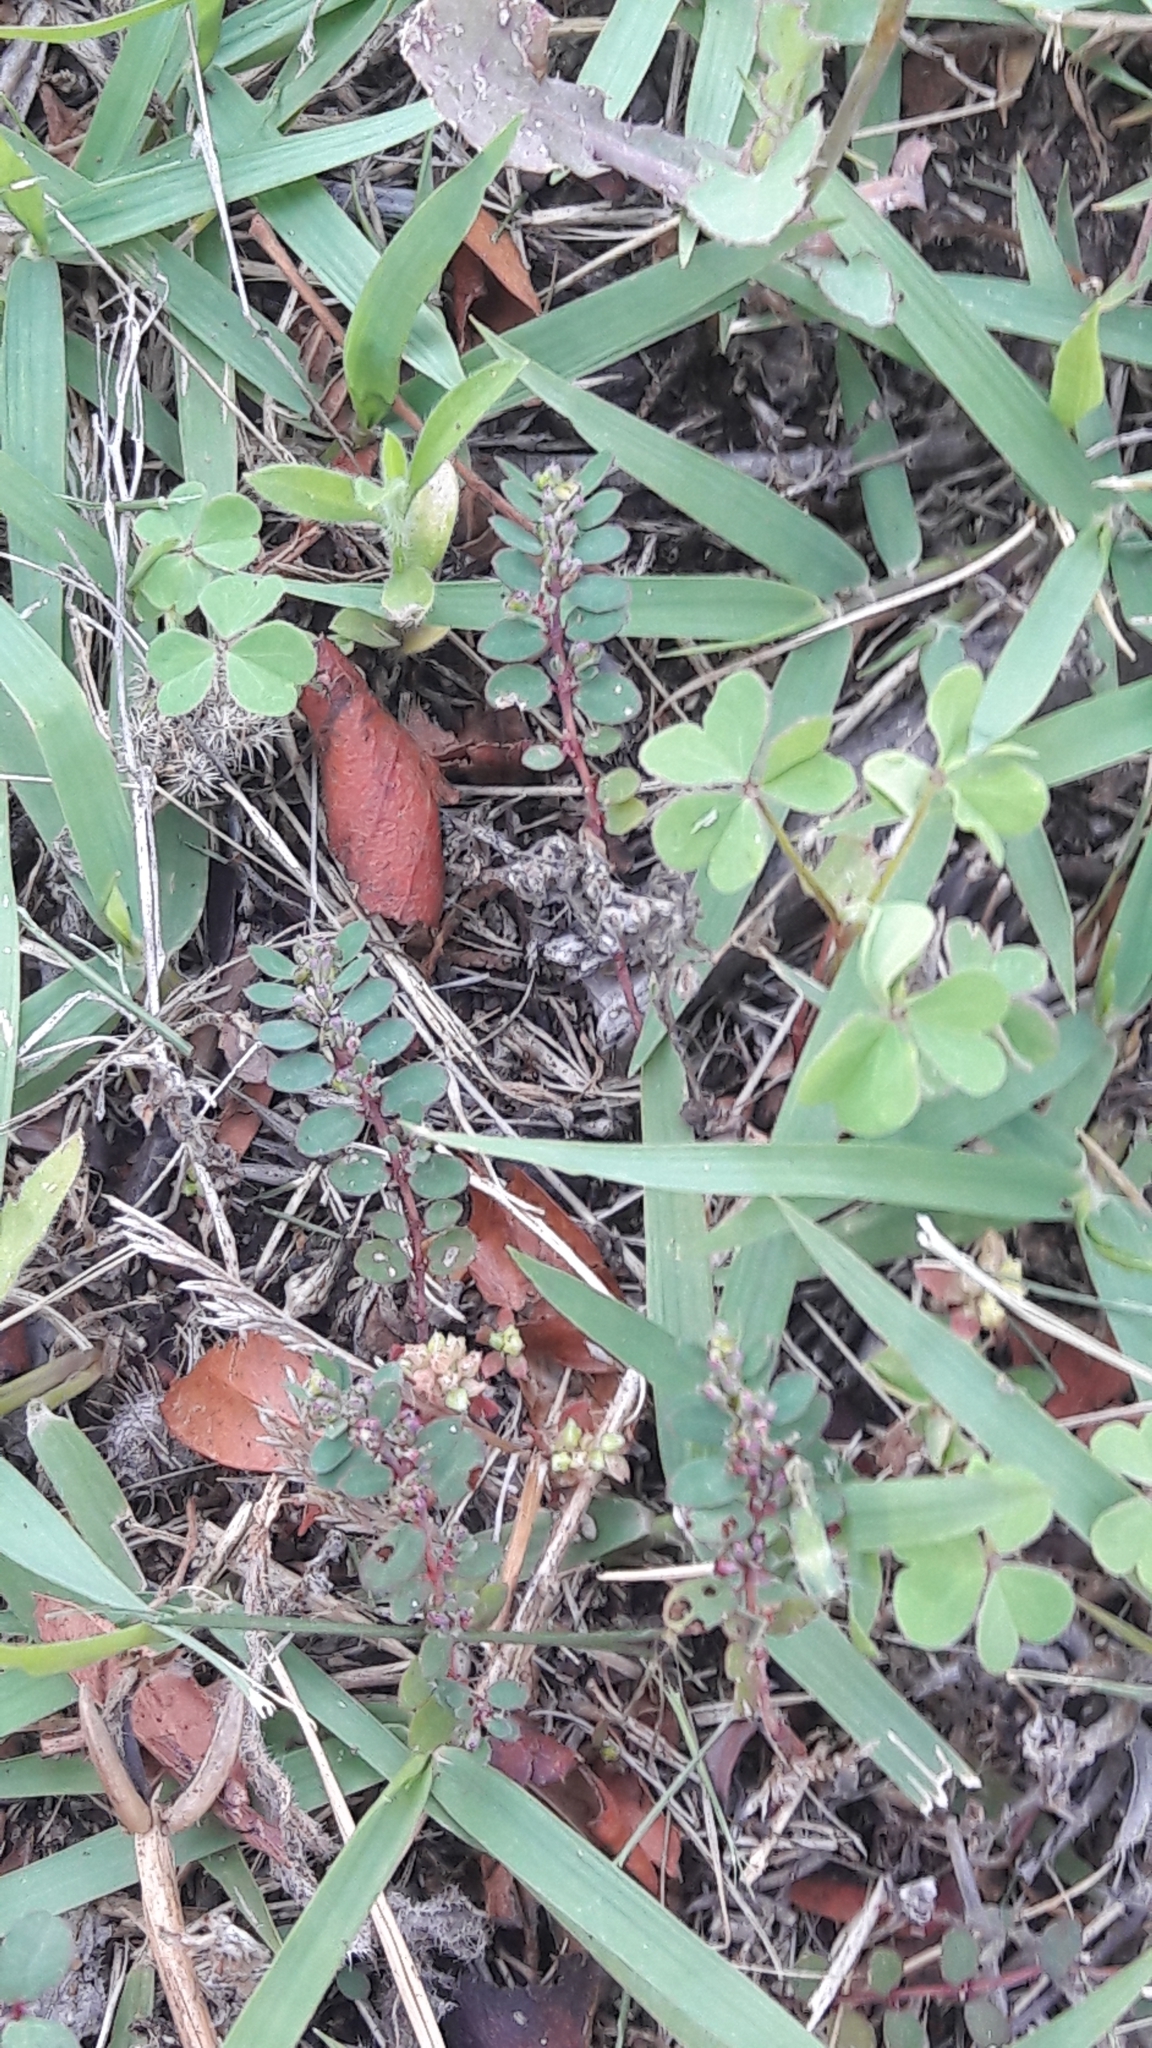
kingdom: Plantae
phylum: Tracheophyta
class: Magnoliopsida
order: Malpighiales
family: Euphorbiaceae
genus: Euphorbia
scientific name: Euphorbia prostrata
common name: Prostrate sandmat
